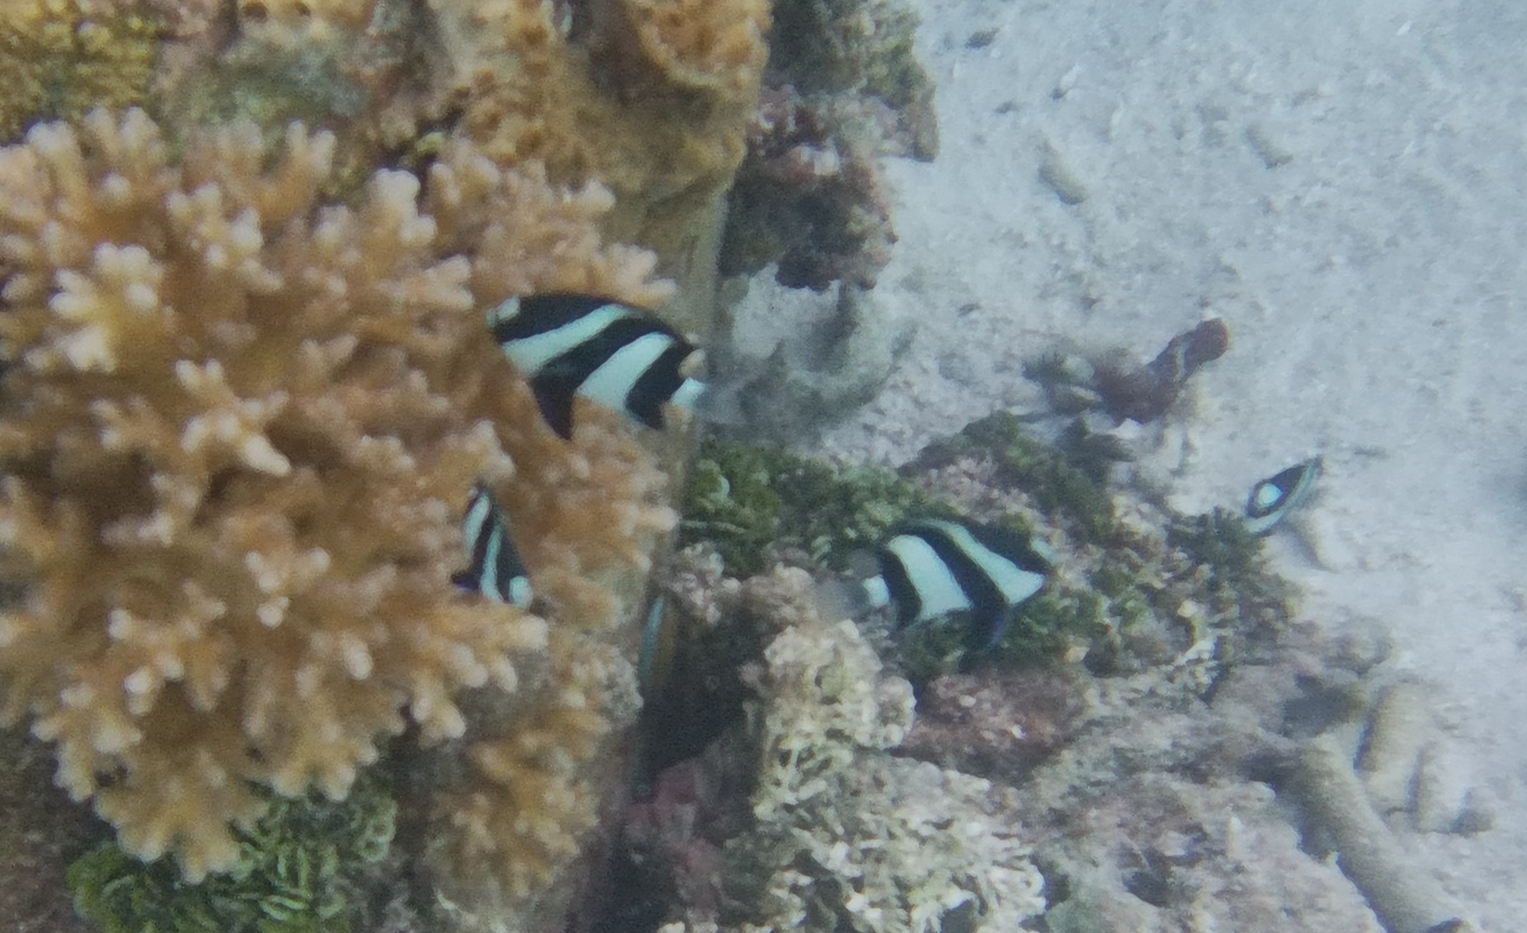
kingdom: Animalia
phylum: Chordata
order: Perciformes
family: Pomacentridae
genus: Dascyllus
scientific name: Dascyllus abudafur
